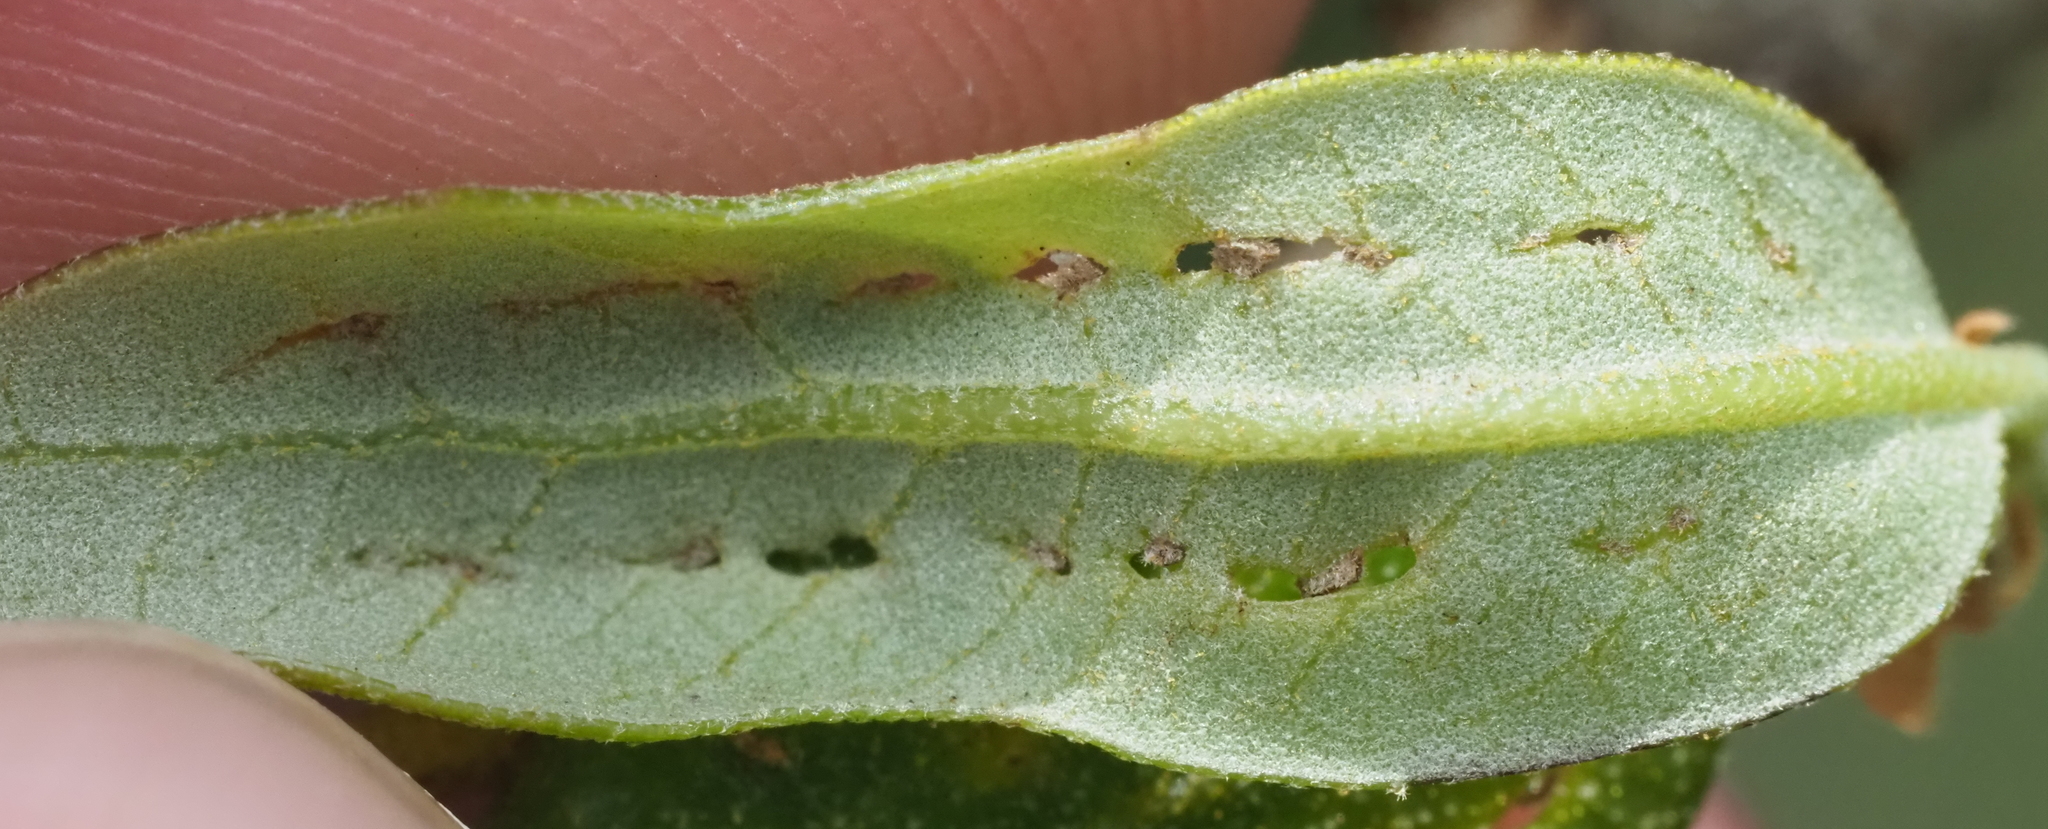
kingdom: Animalia
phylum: Arthropoda
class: Insecta
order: Hymenoptera
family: Cynipidae
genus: Belonocnema
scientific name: Belonocnema kinseyi
